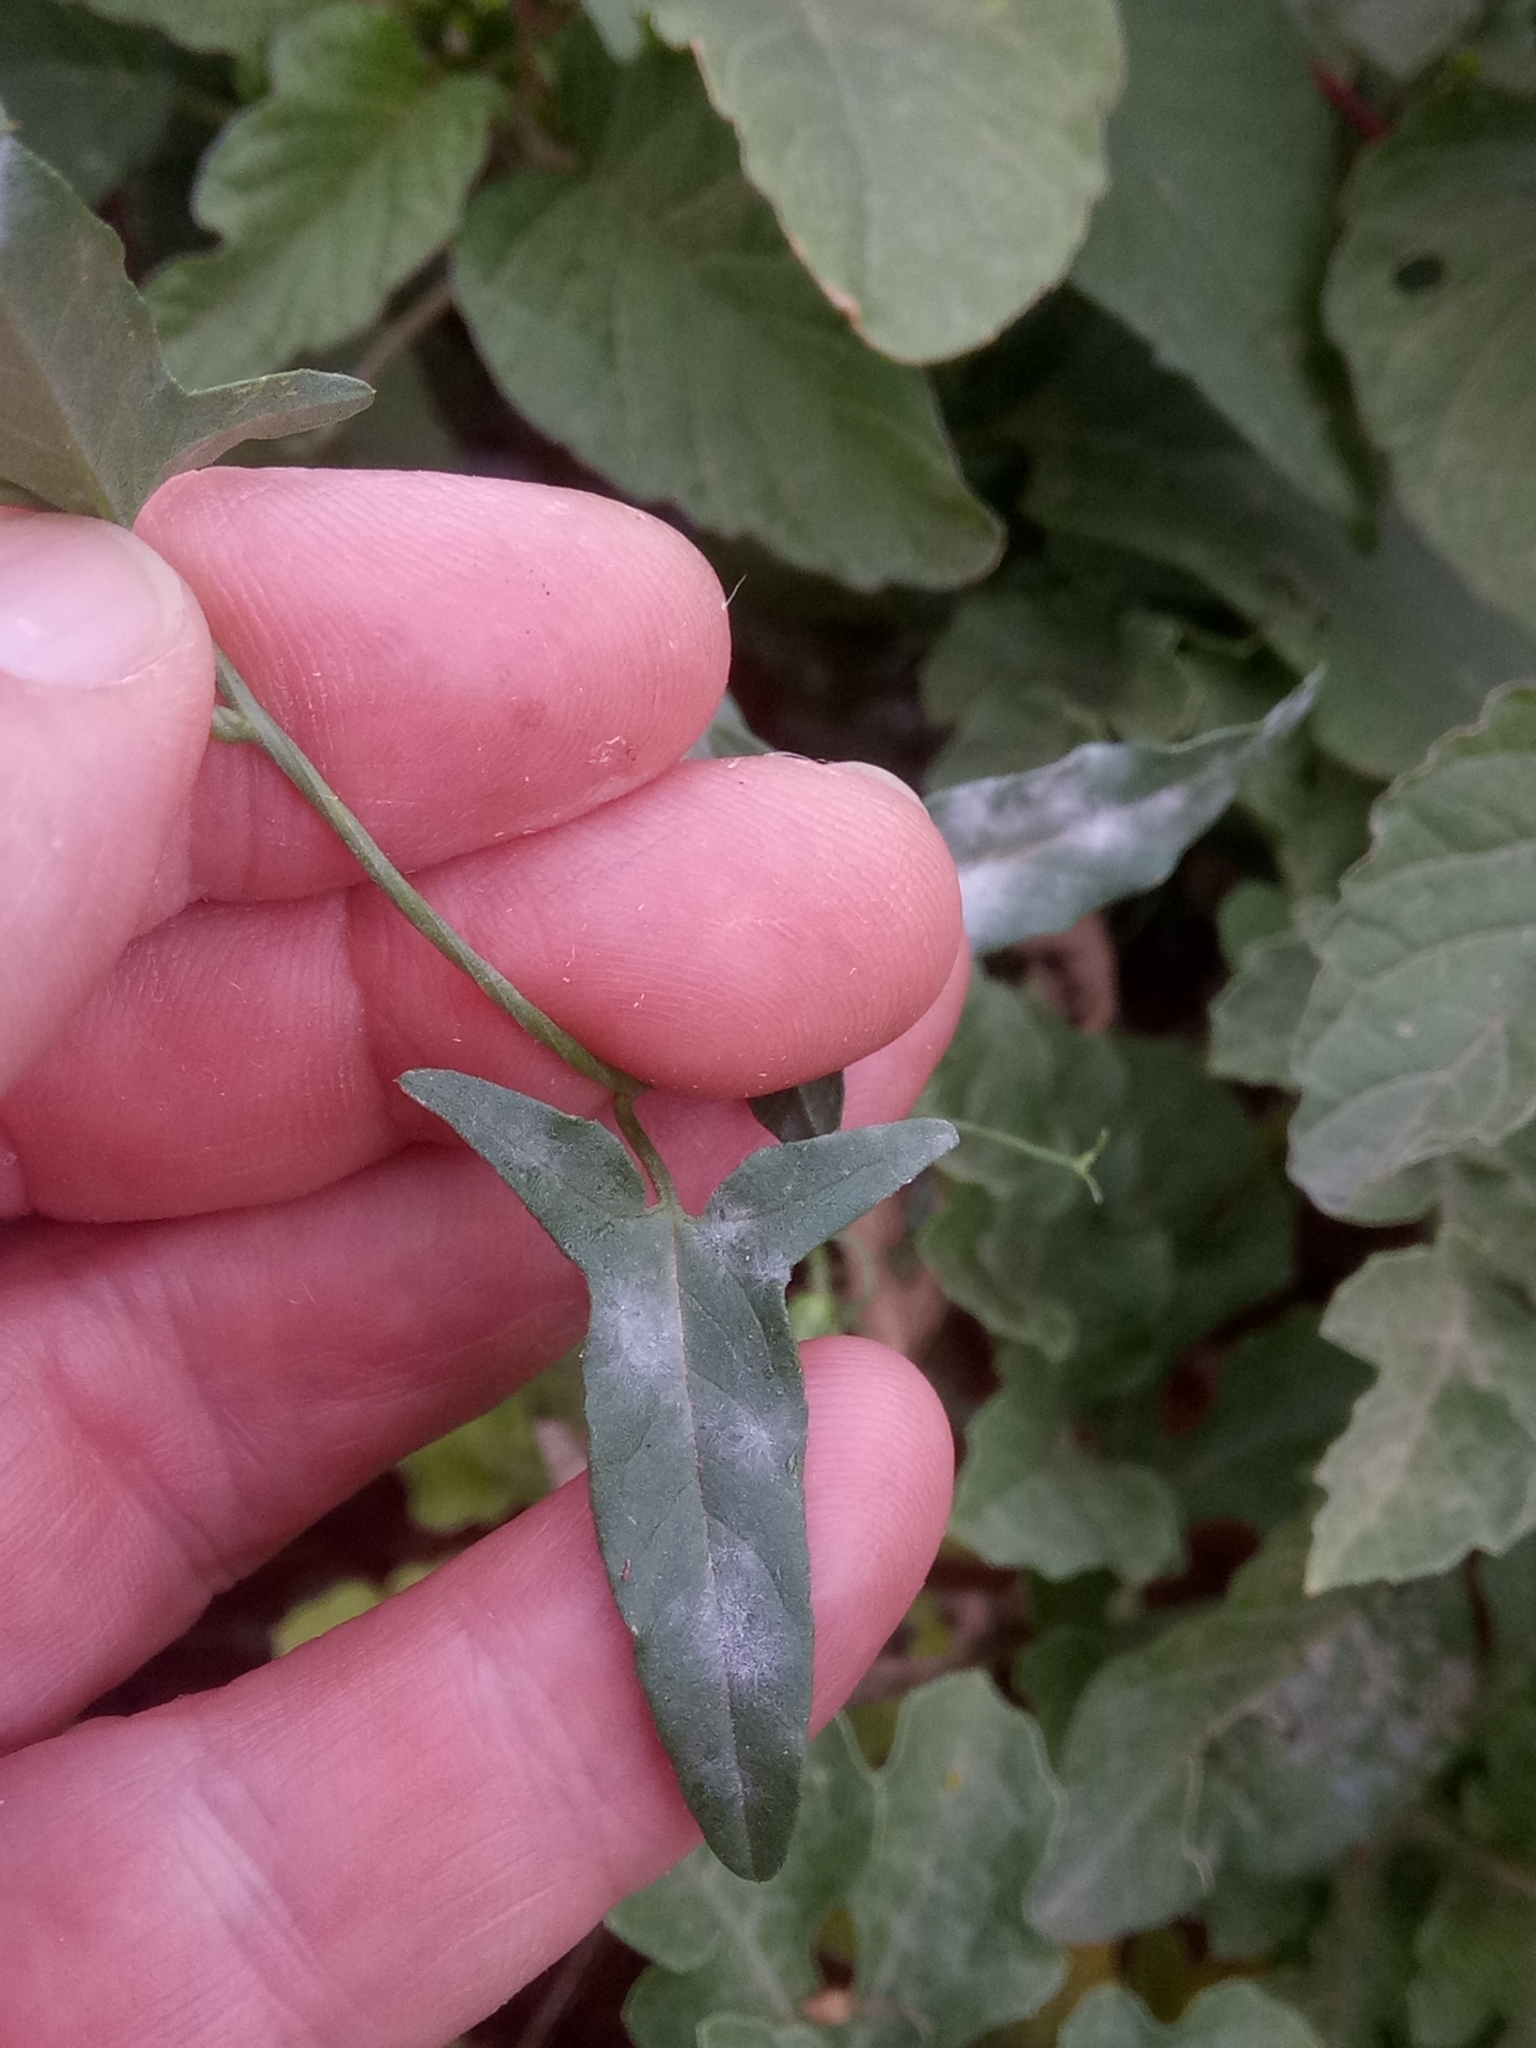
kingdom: Plantae
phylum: Tracheophyta
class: Magnoliopsida
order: Solanales
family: Convolvulaceae
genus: Convolvulus
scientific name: Convolvulus arvensis
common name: Field bindweed
